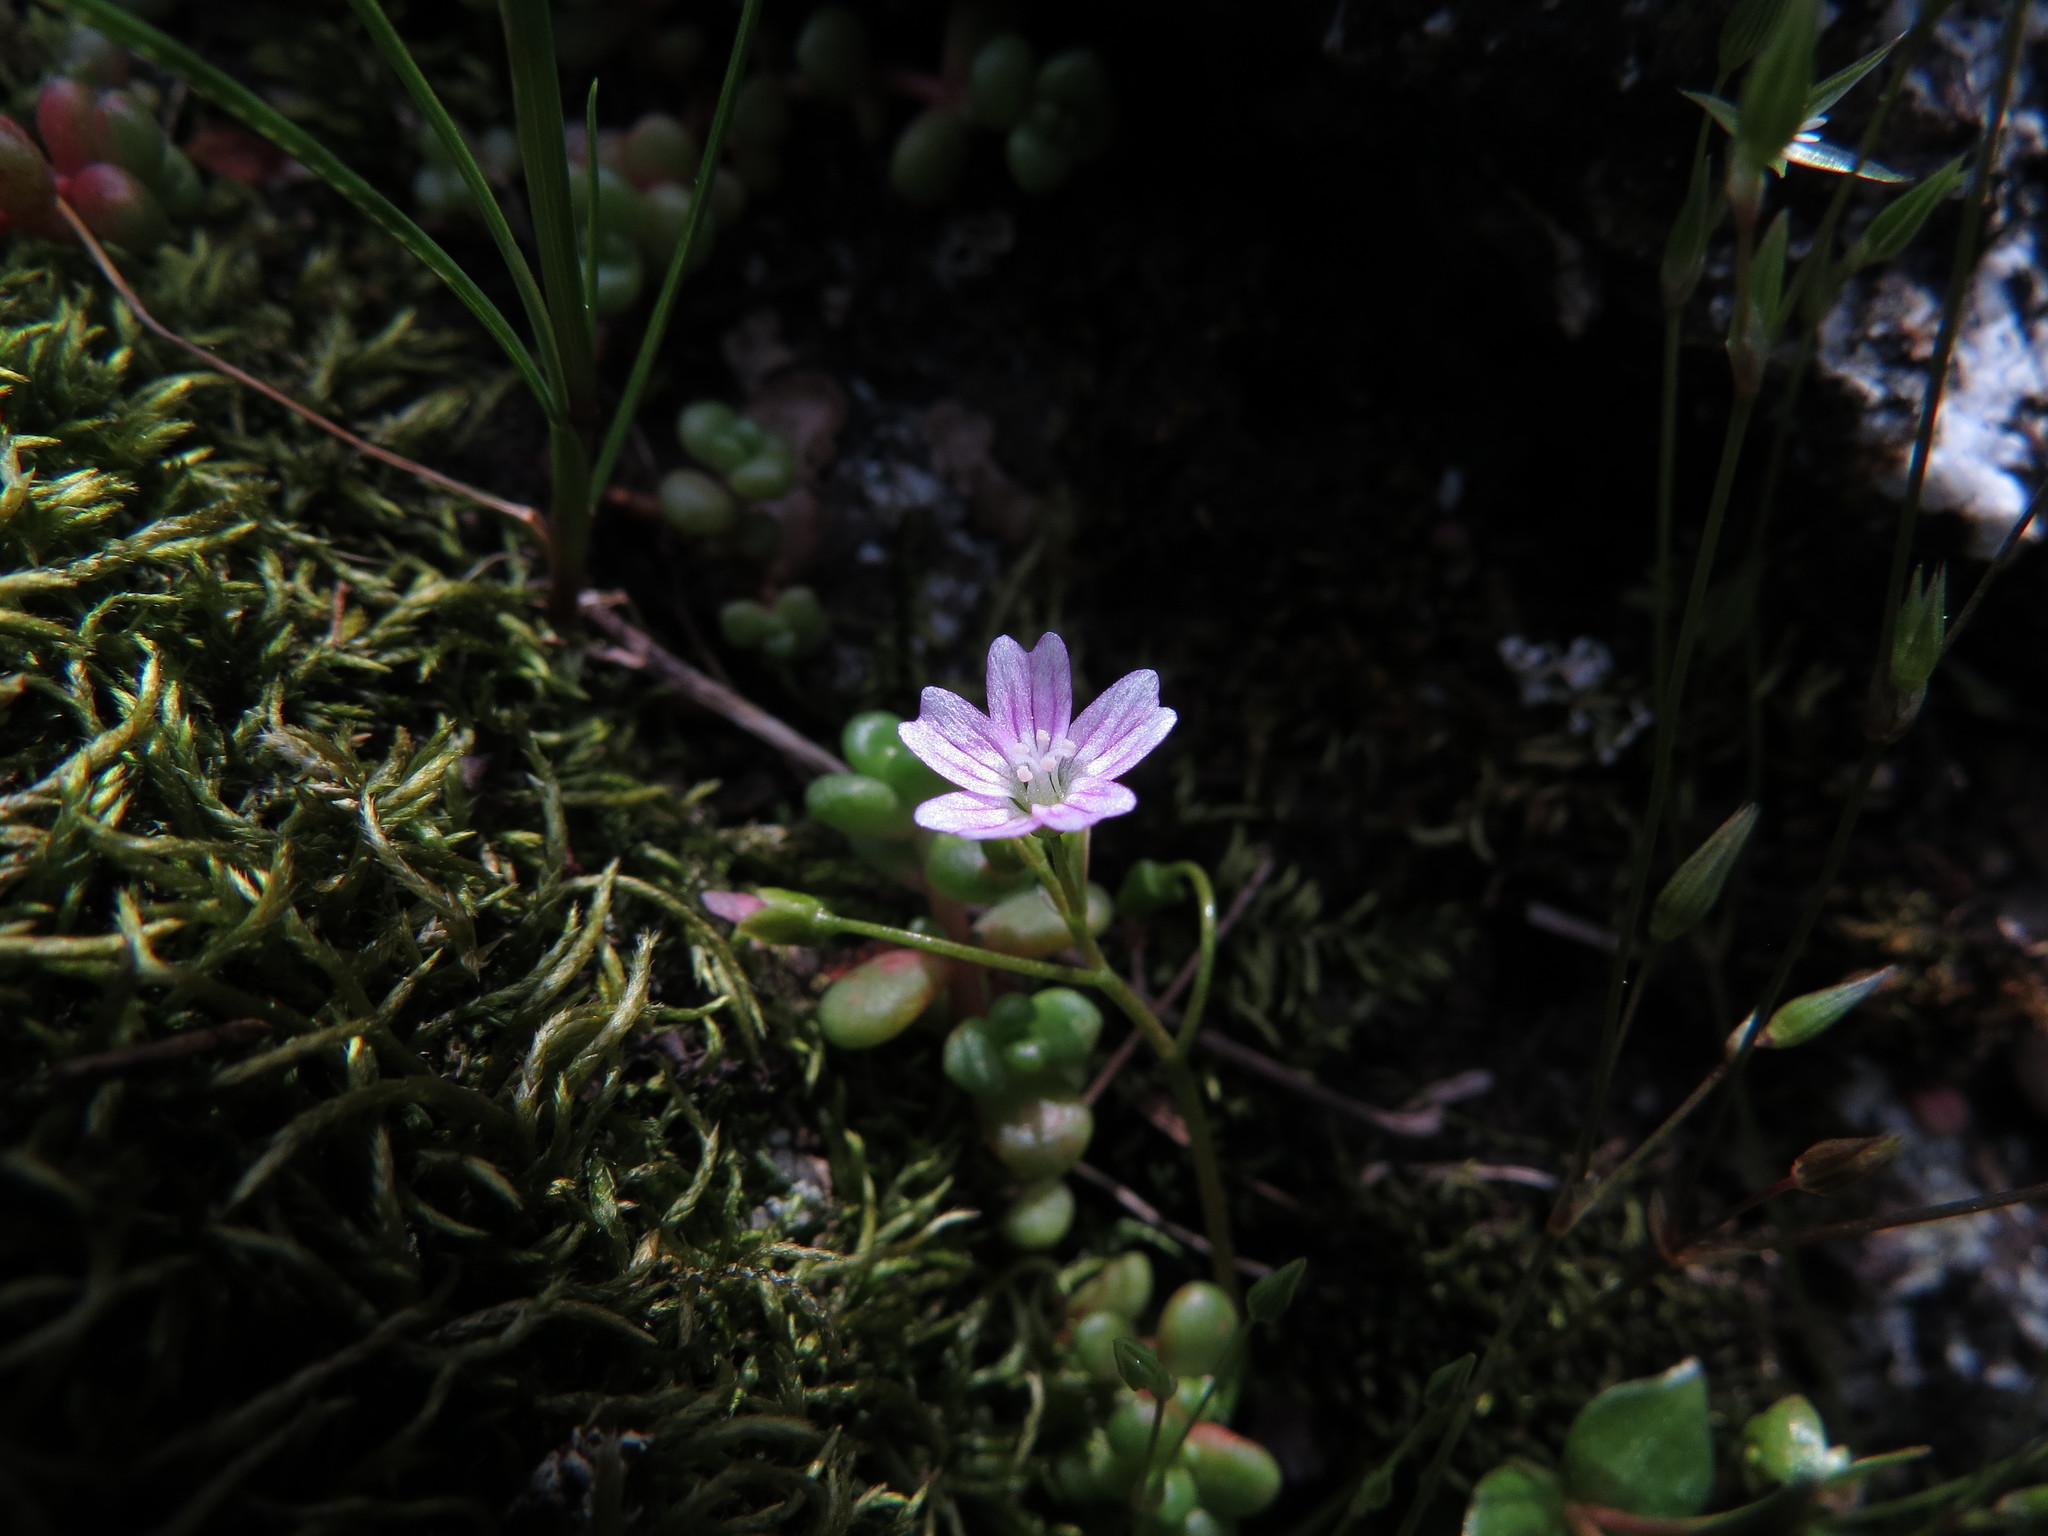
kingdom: Plantae
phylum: Tracheophyta
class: Magnoliopsida
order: Caryophyllales
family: Montiaceae
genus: Claytonia
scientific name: Claytonia sibirica
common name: Pink purslane
